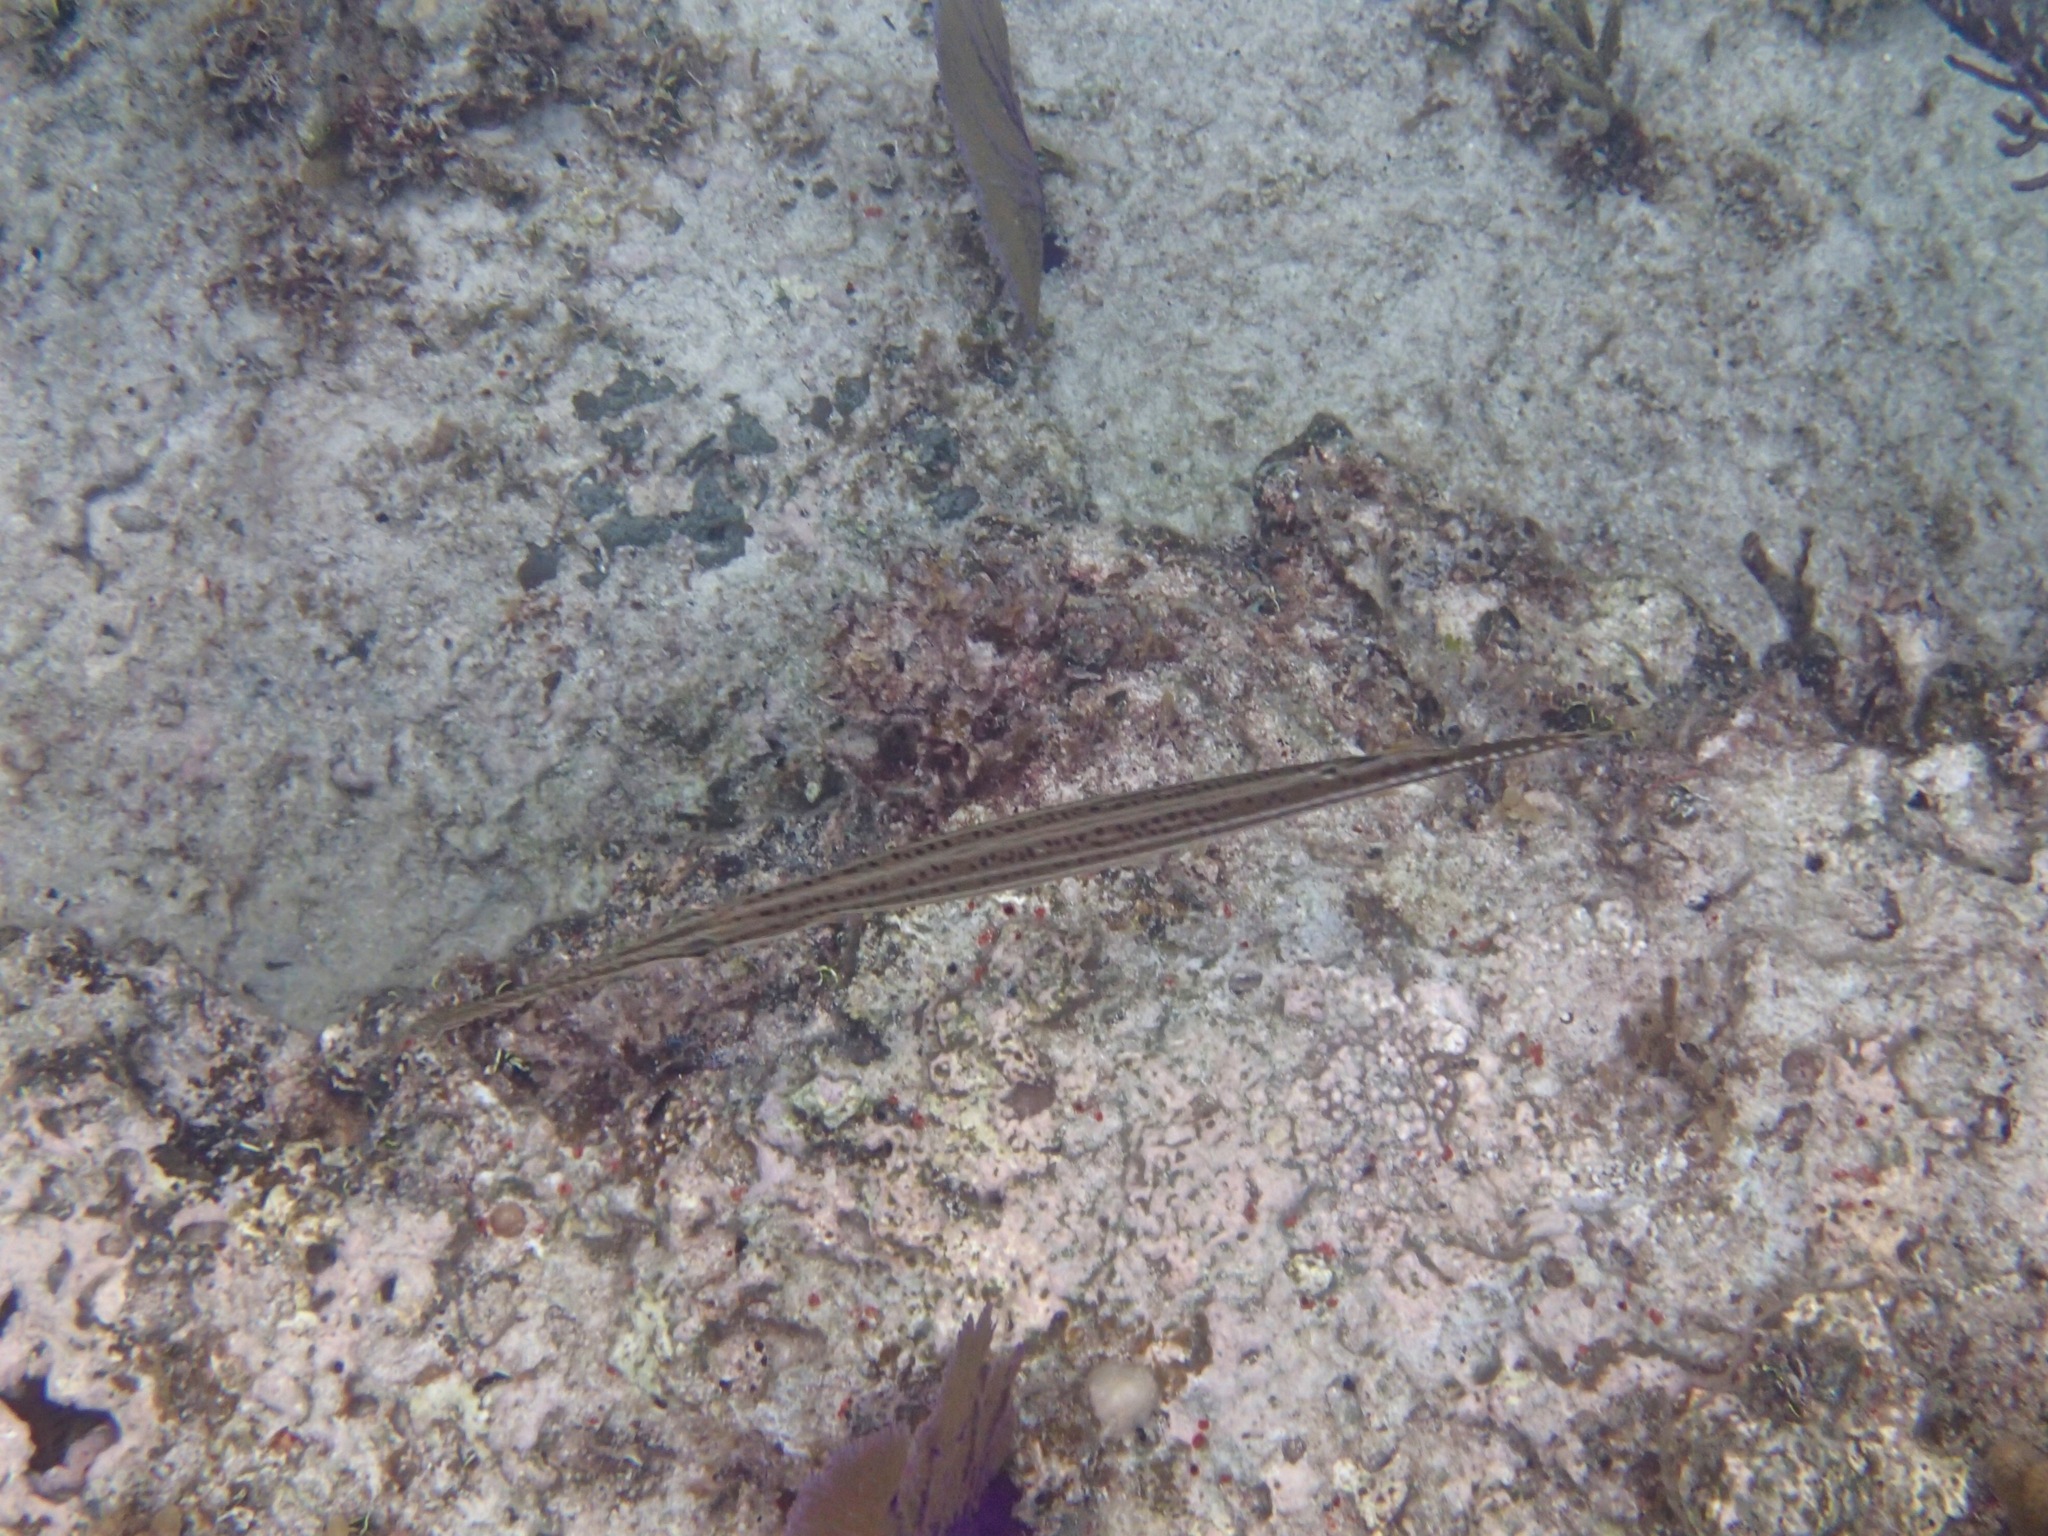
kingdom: Animalia
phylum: Chordata
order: Syngnathiformes
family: Aulostomidae
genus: Aulostomus
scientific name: Aulostomus maculatus
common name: West atlantic trumpetfish
